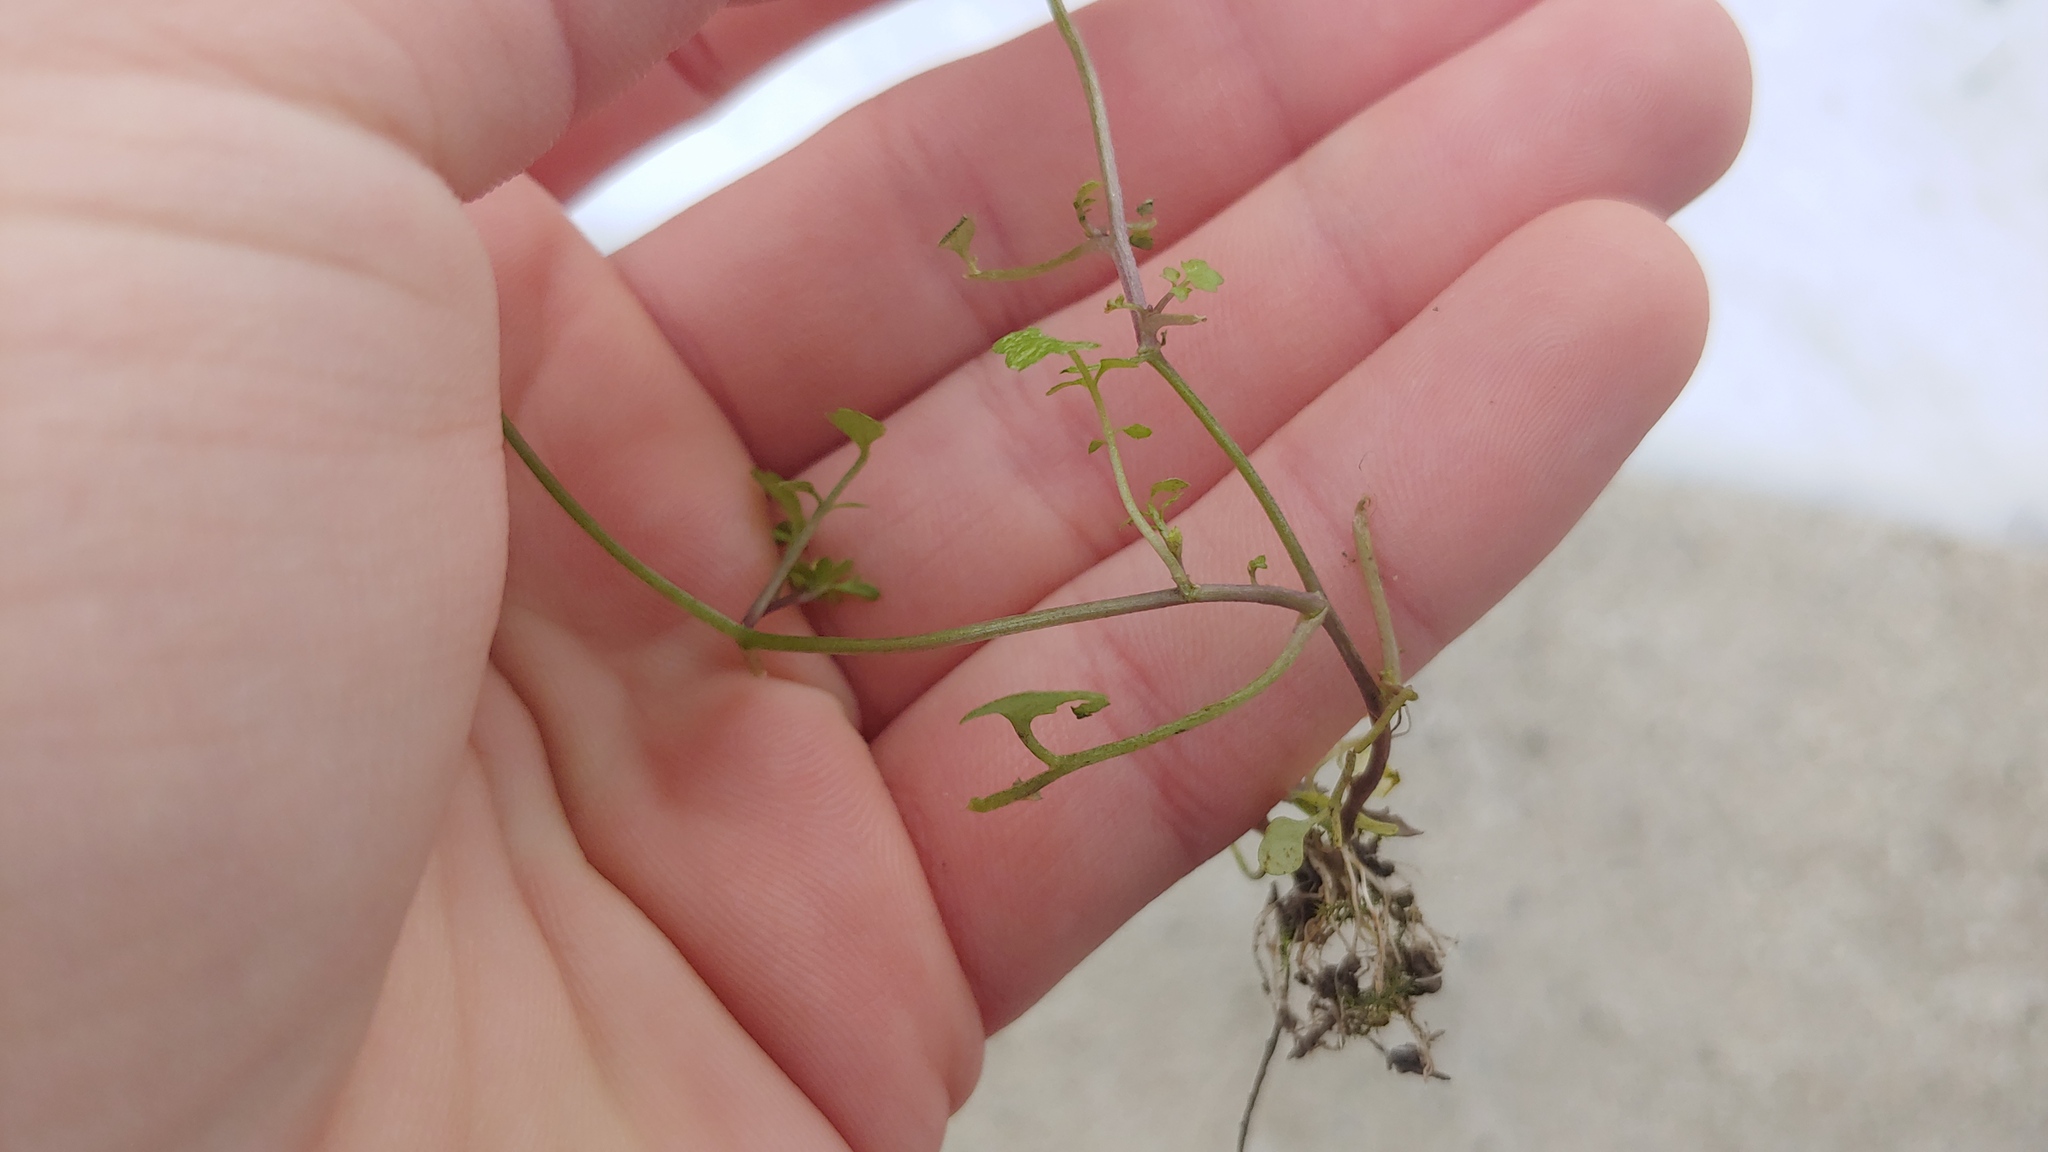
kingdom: Plantae
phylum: Tracheophyta
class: Magnoliopsida
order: Brassicales
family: Brassicaceae
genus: Cardamine
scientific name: Cardamine hirsuta
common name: Hairy bittercress
